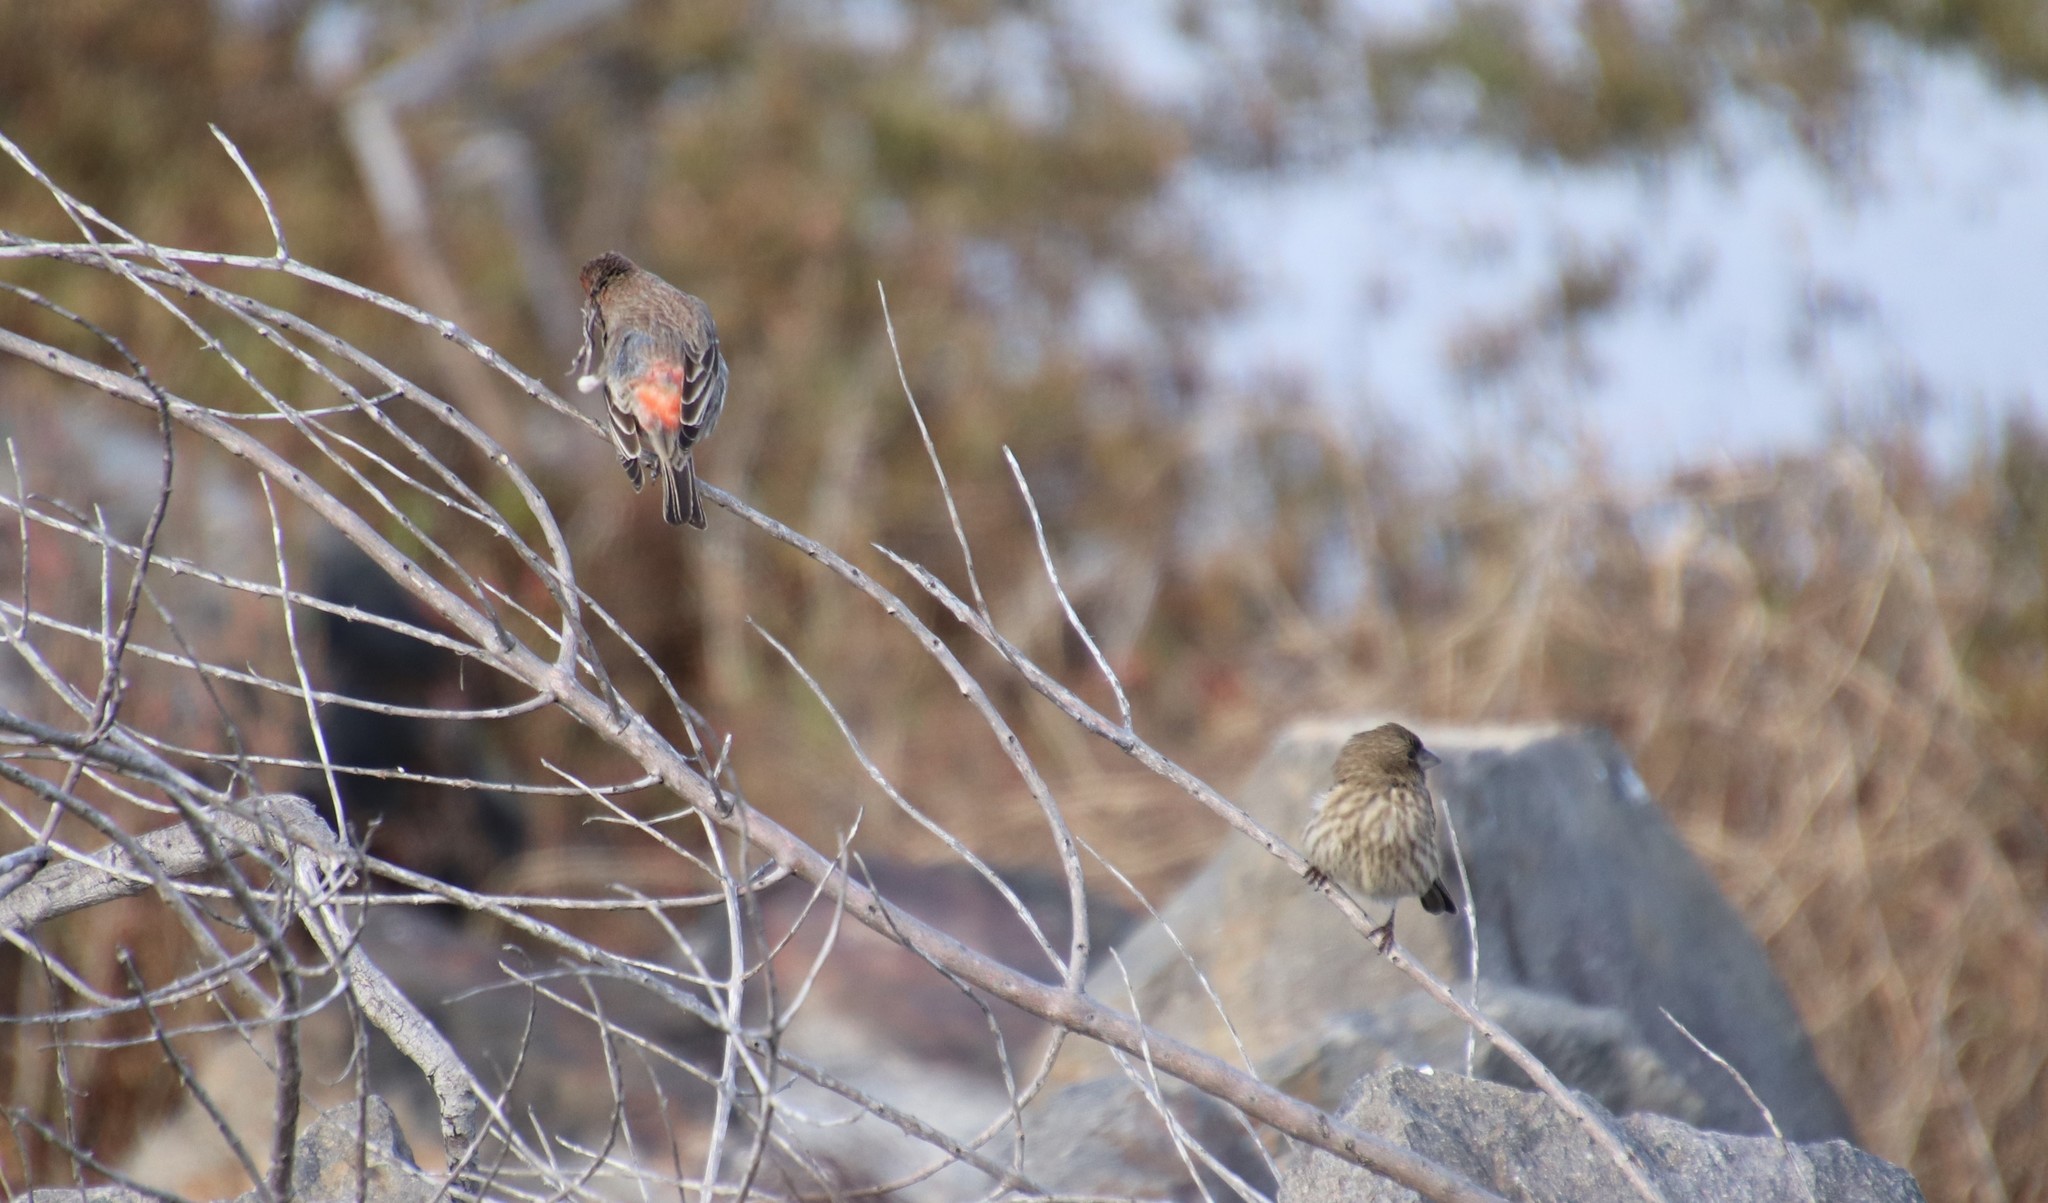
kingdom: Animalia
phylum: Chordata
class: Aves
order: Passeriformes
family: Fringillidae
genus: Haemorhous
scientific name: Haemorhous mexicanus
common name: House finch
